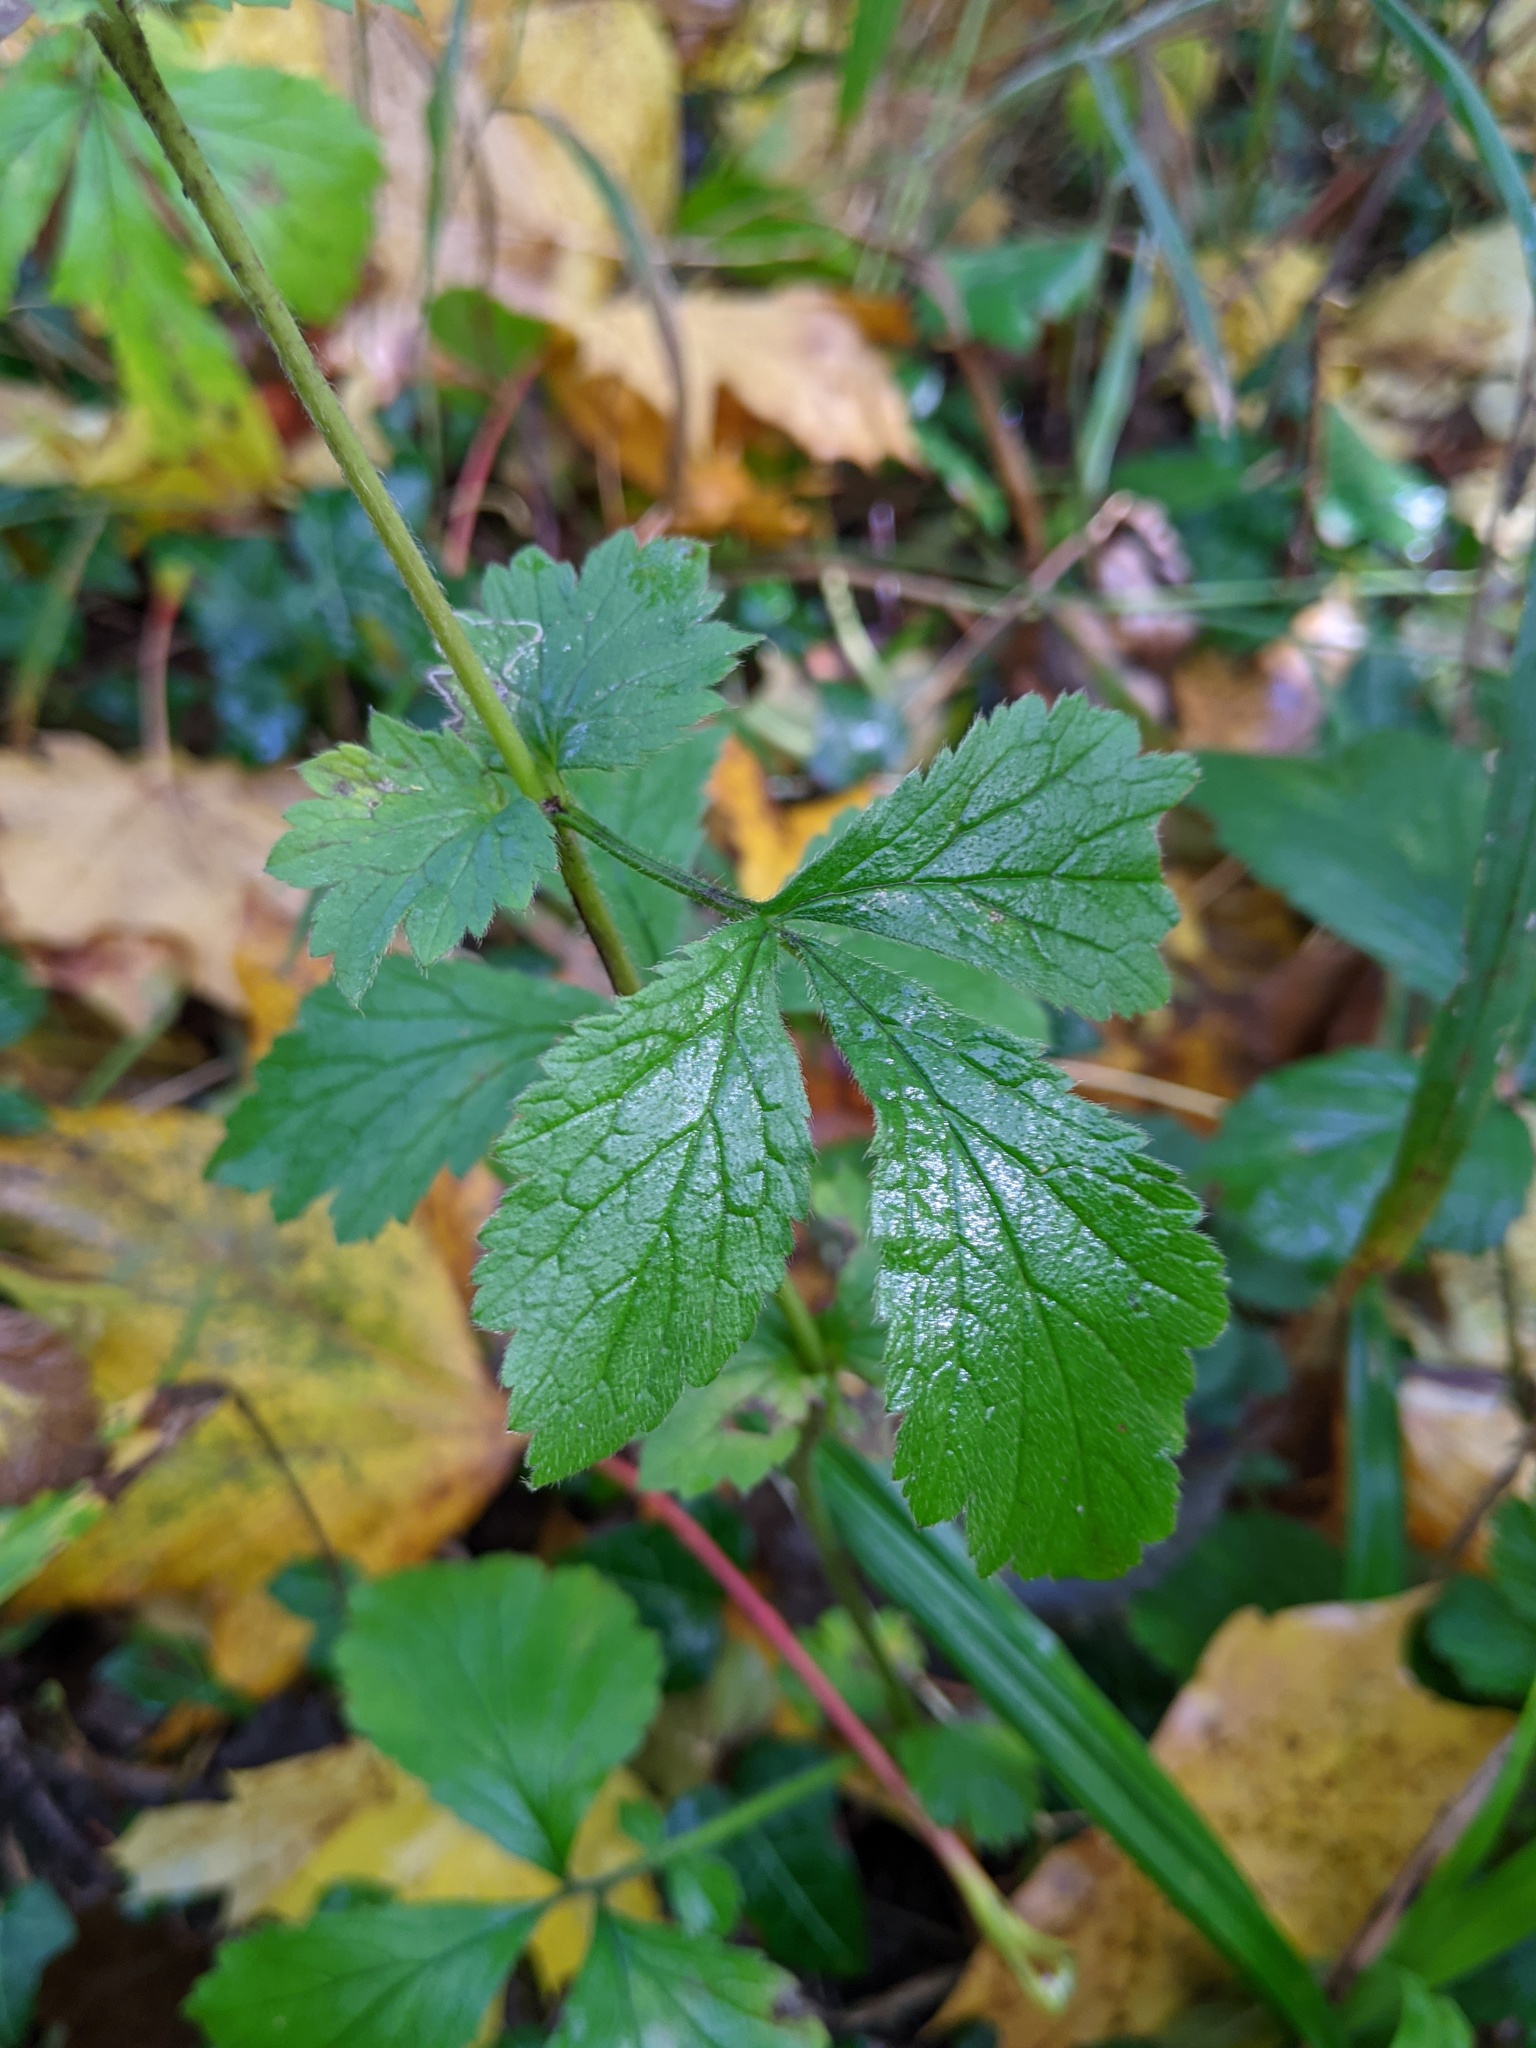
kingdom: Plantae
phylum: Tracheophyta
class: Magnoliopsida
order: Rosales
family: Rosaceae
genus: Geum
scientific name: Geum urbanum
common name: Wood avens
